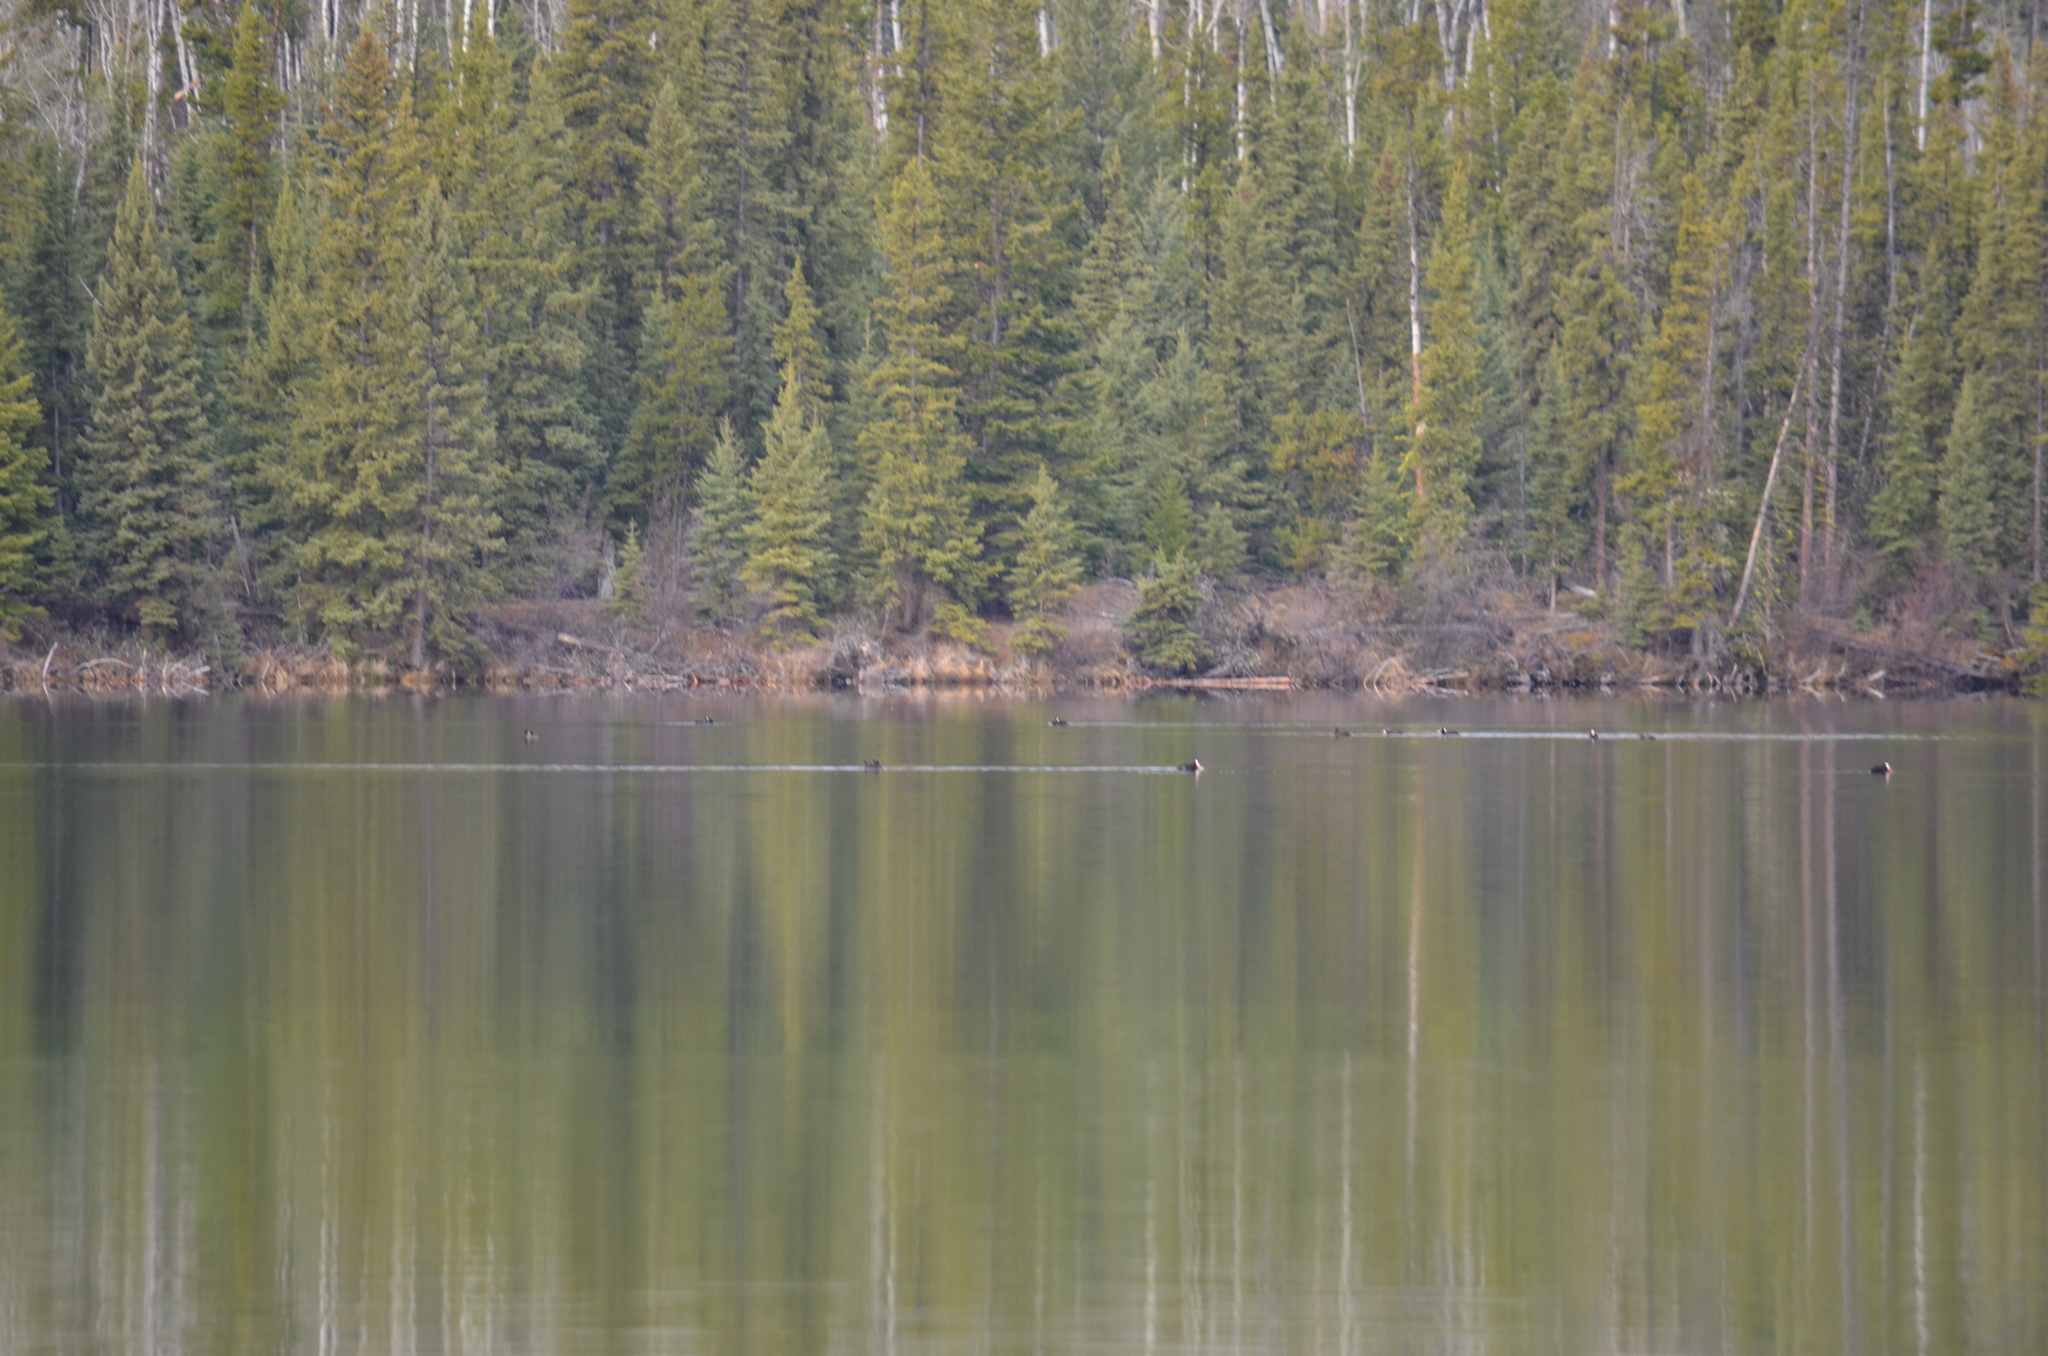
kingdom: Animalia
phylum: Chordata
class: Aves
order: Anseriformes
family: Anatidae
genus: Lophodytes
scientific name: Lophodytes cucullatus
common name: Hooded merganser
